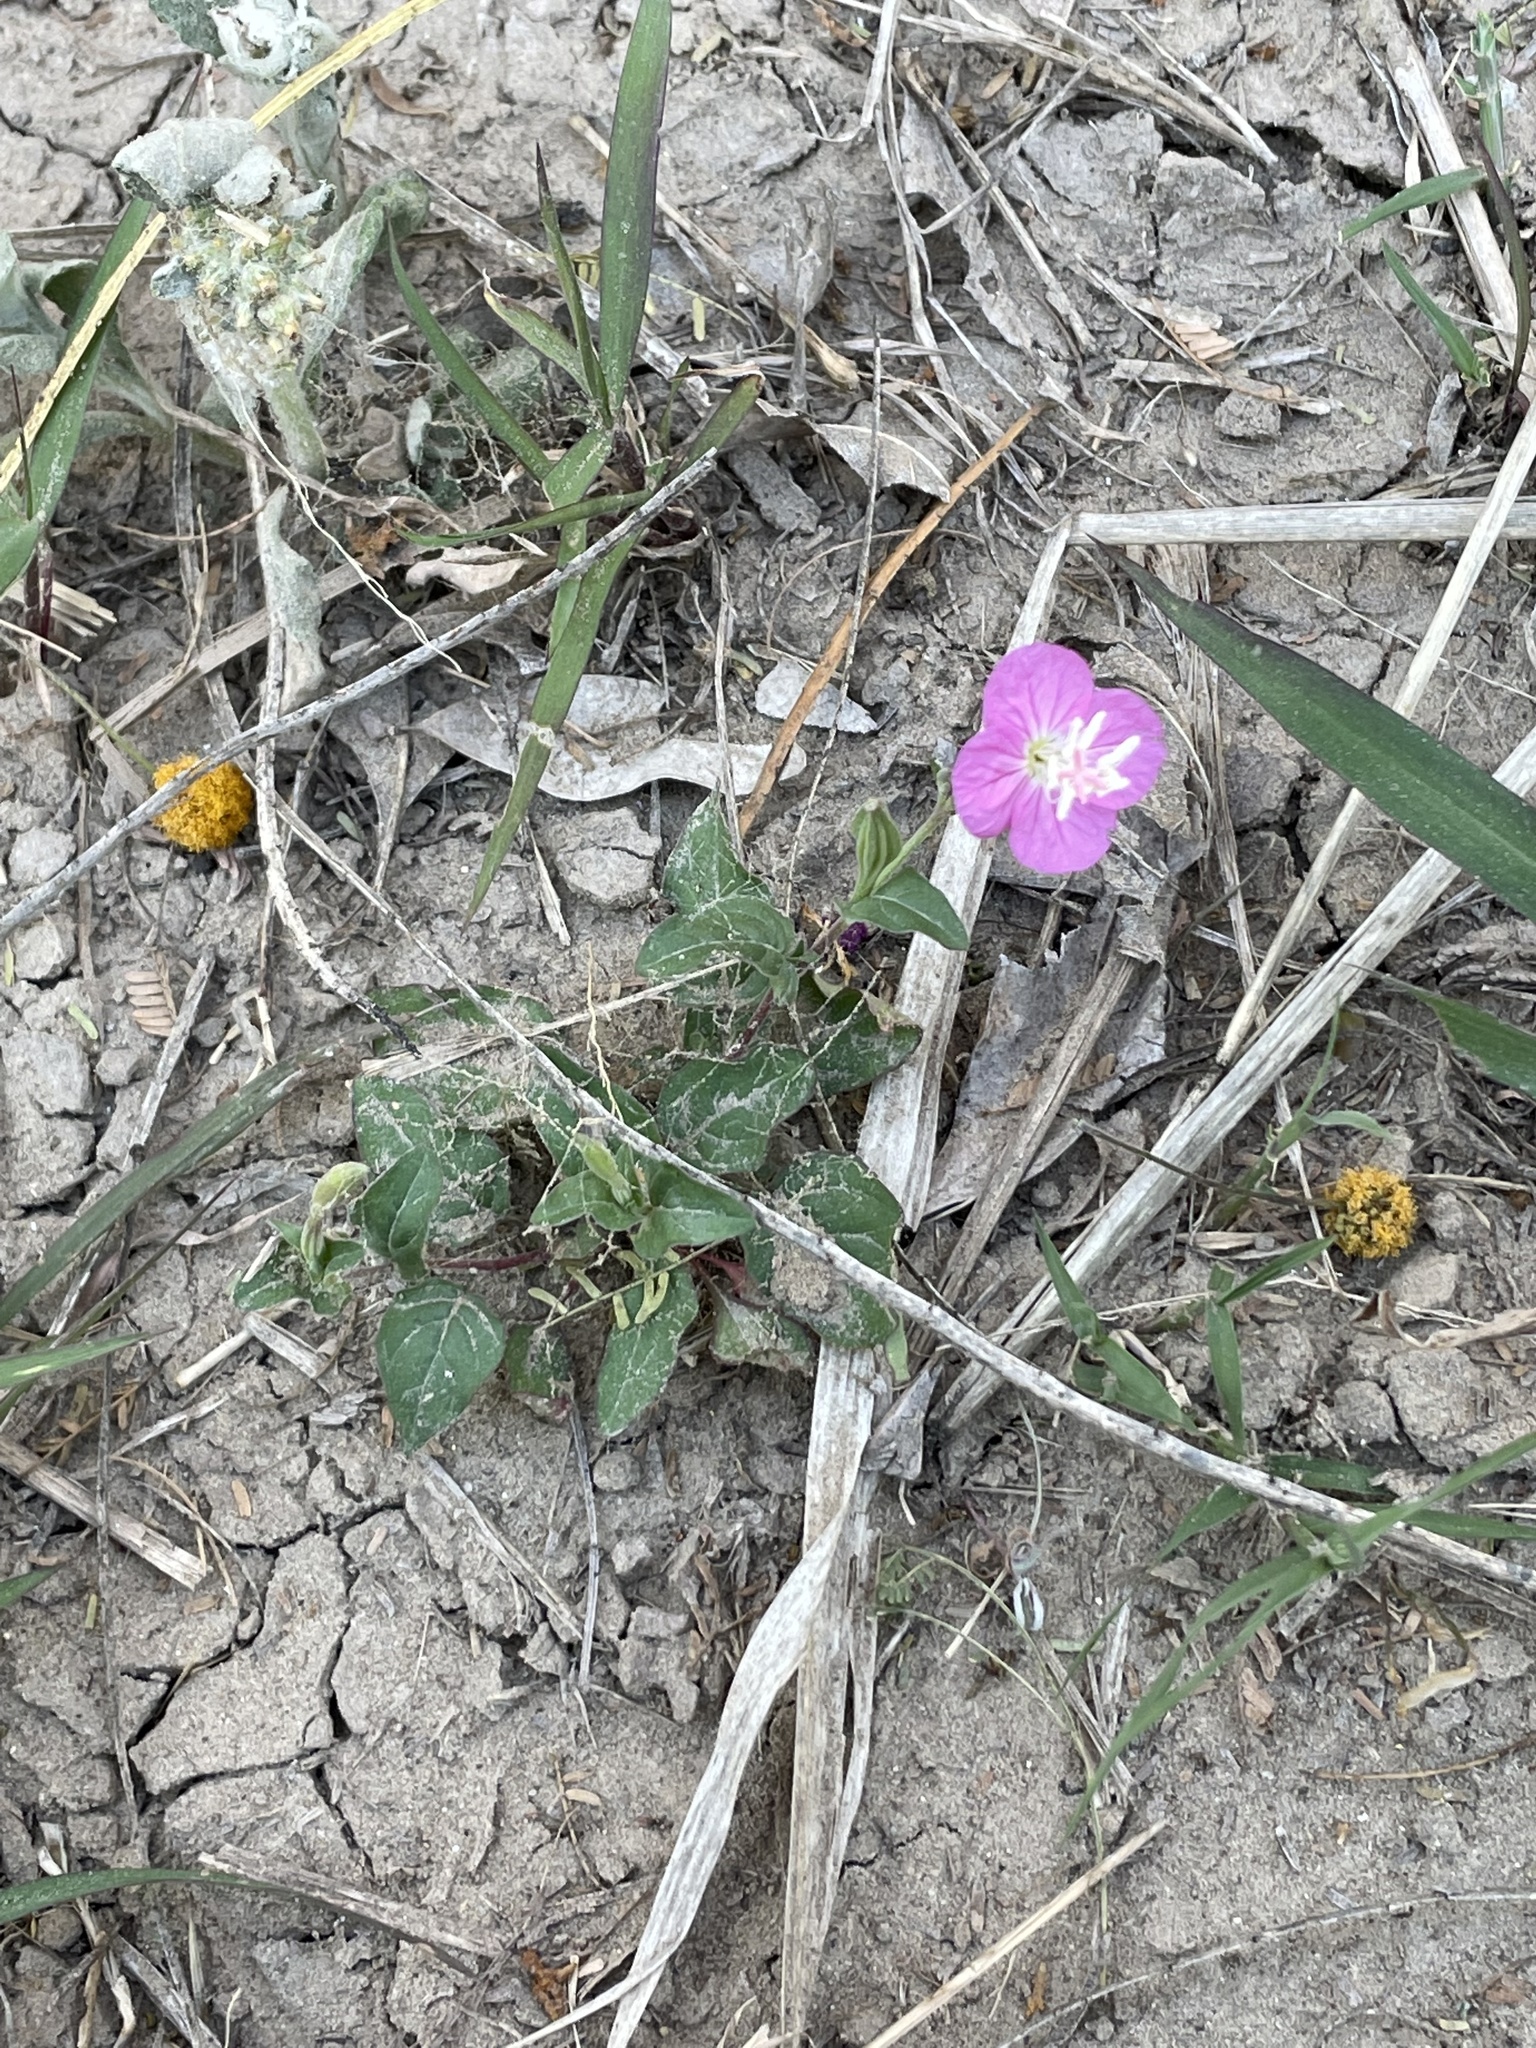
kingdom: Plantae
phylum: Tracheophyta
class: Magnoliopsida
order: Myrtales
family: Onagraceae
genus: Oenothera
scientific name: Oenothera rosea
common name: Rosy evening-primrose
